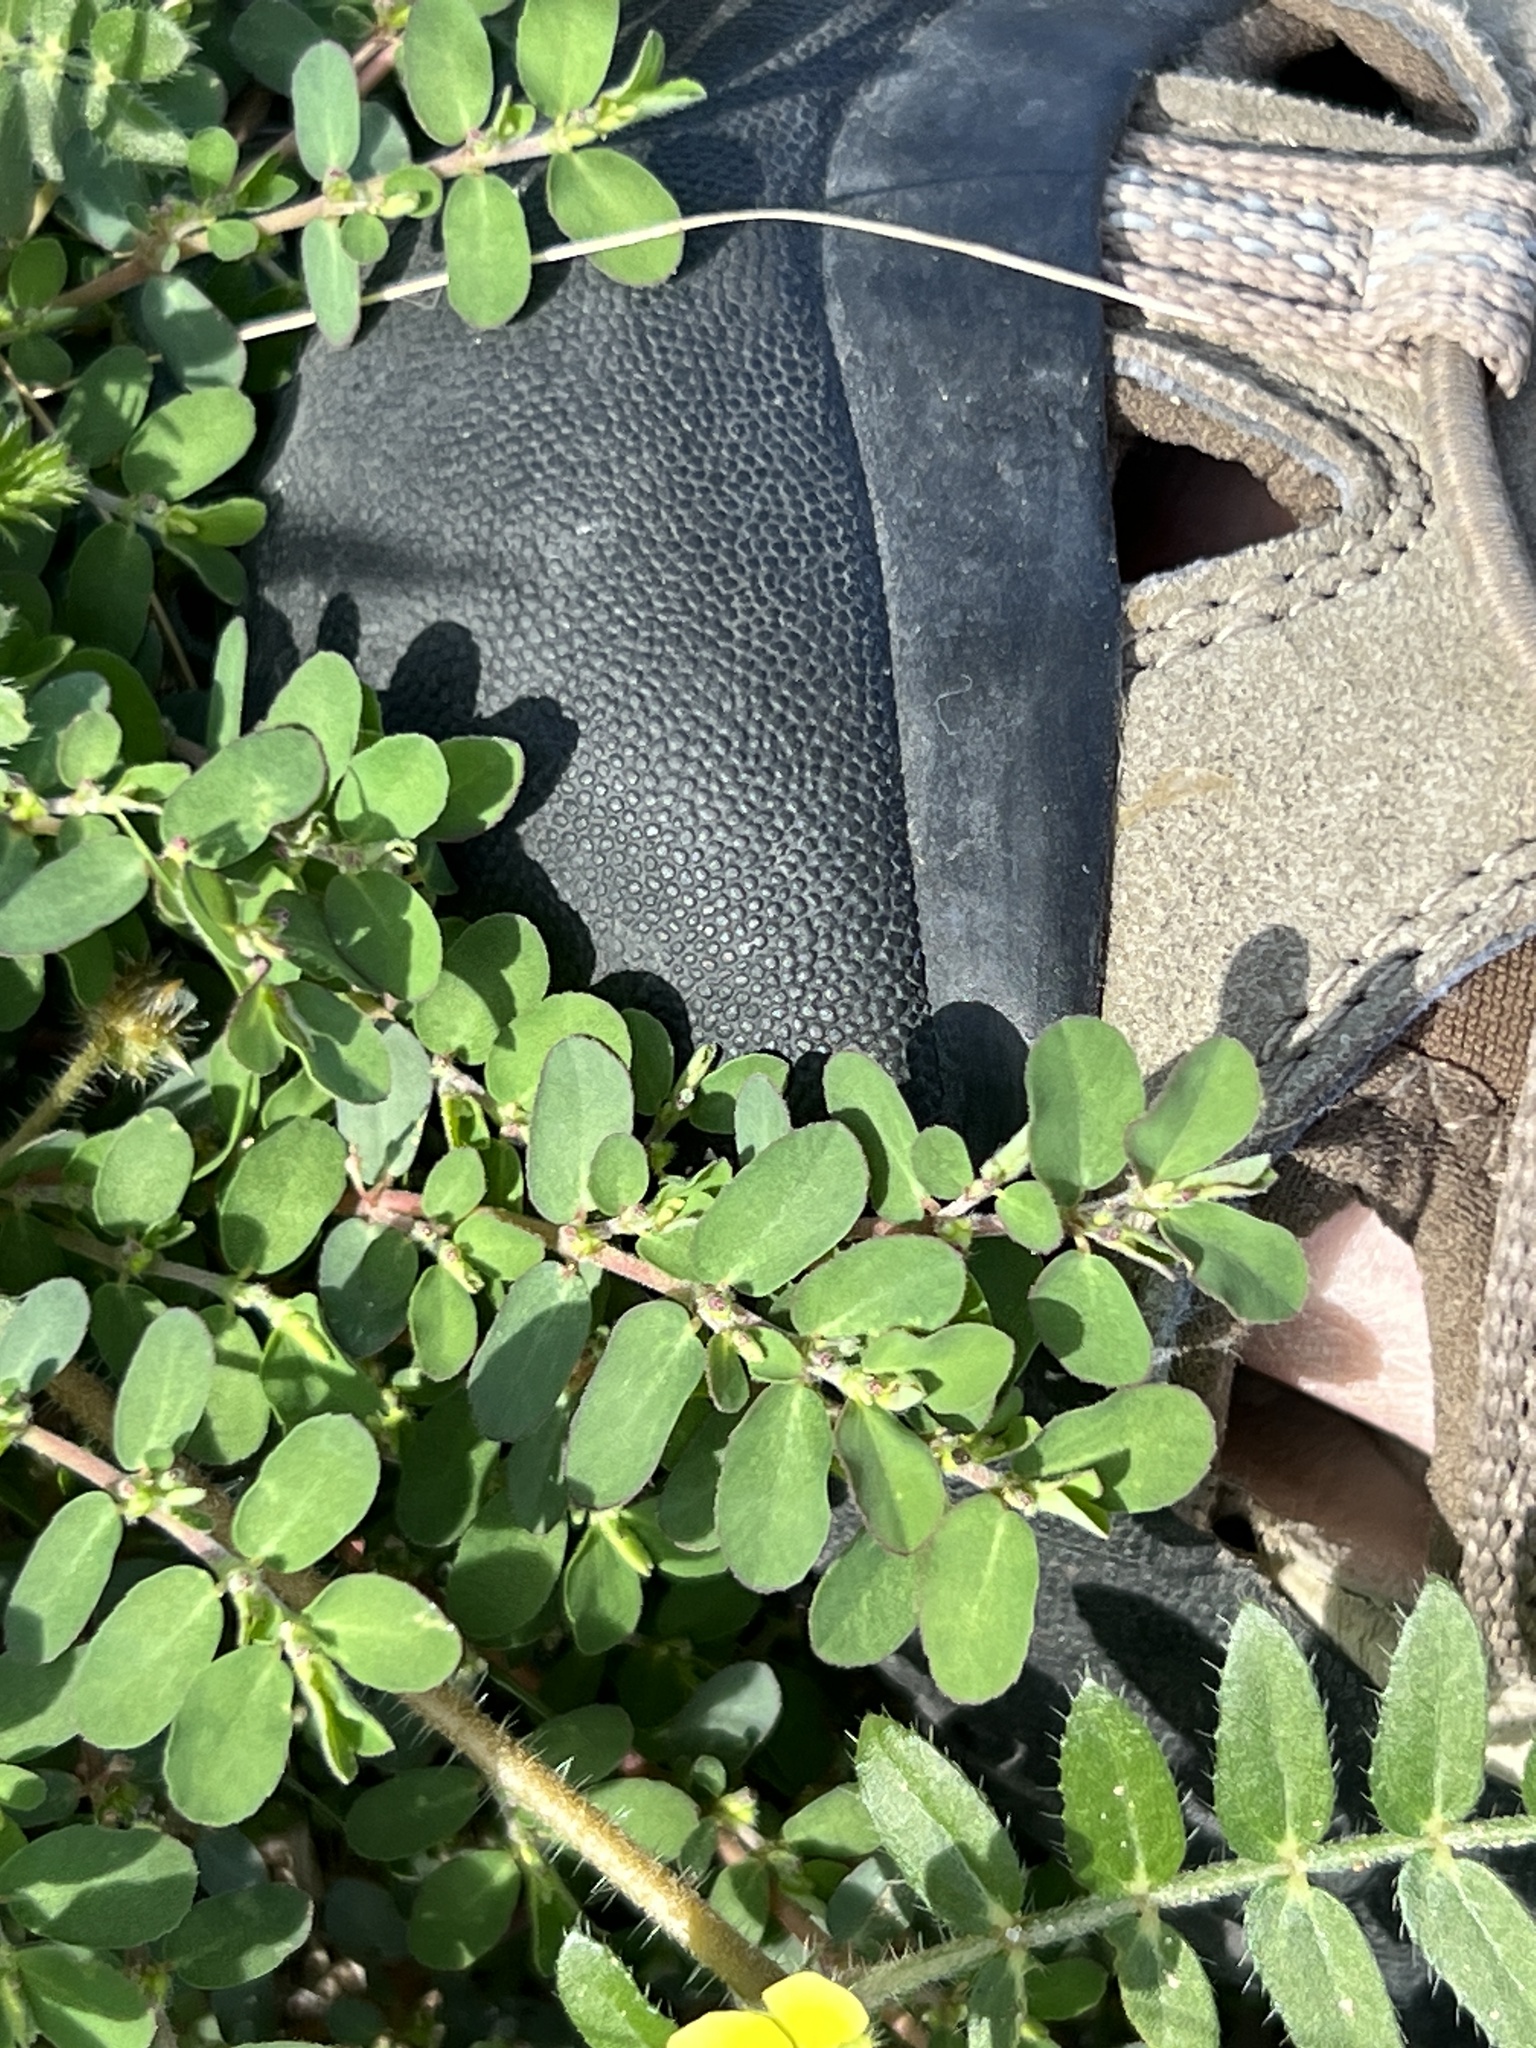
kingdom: Plantae
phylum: Tracheophyta
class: Magnoliopsida
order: Malpighiales
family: Euphorbiaceae
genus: Euphorbia
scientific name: Euphorbia prostrata
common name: Prostrate sandmat
